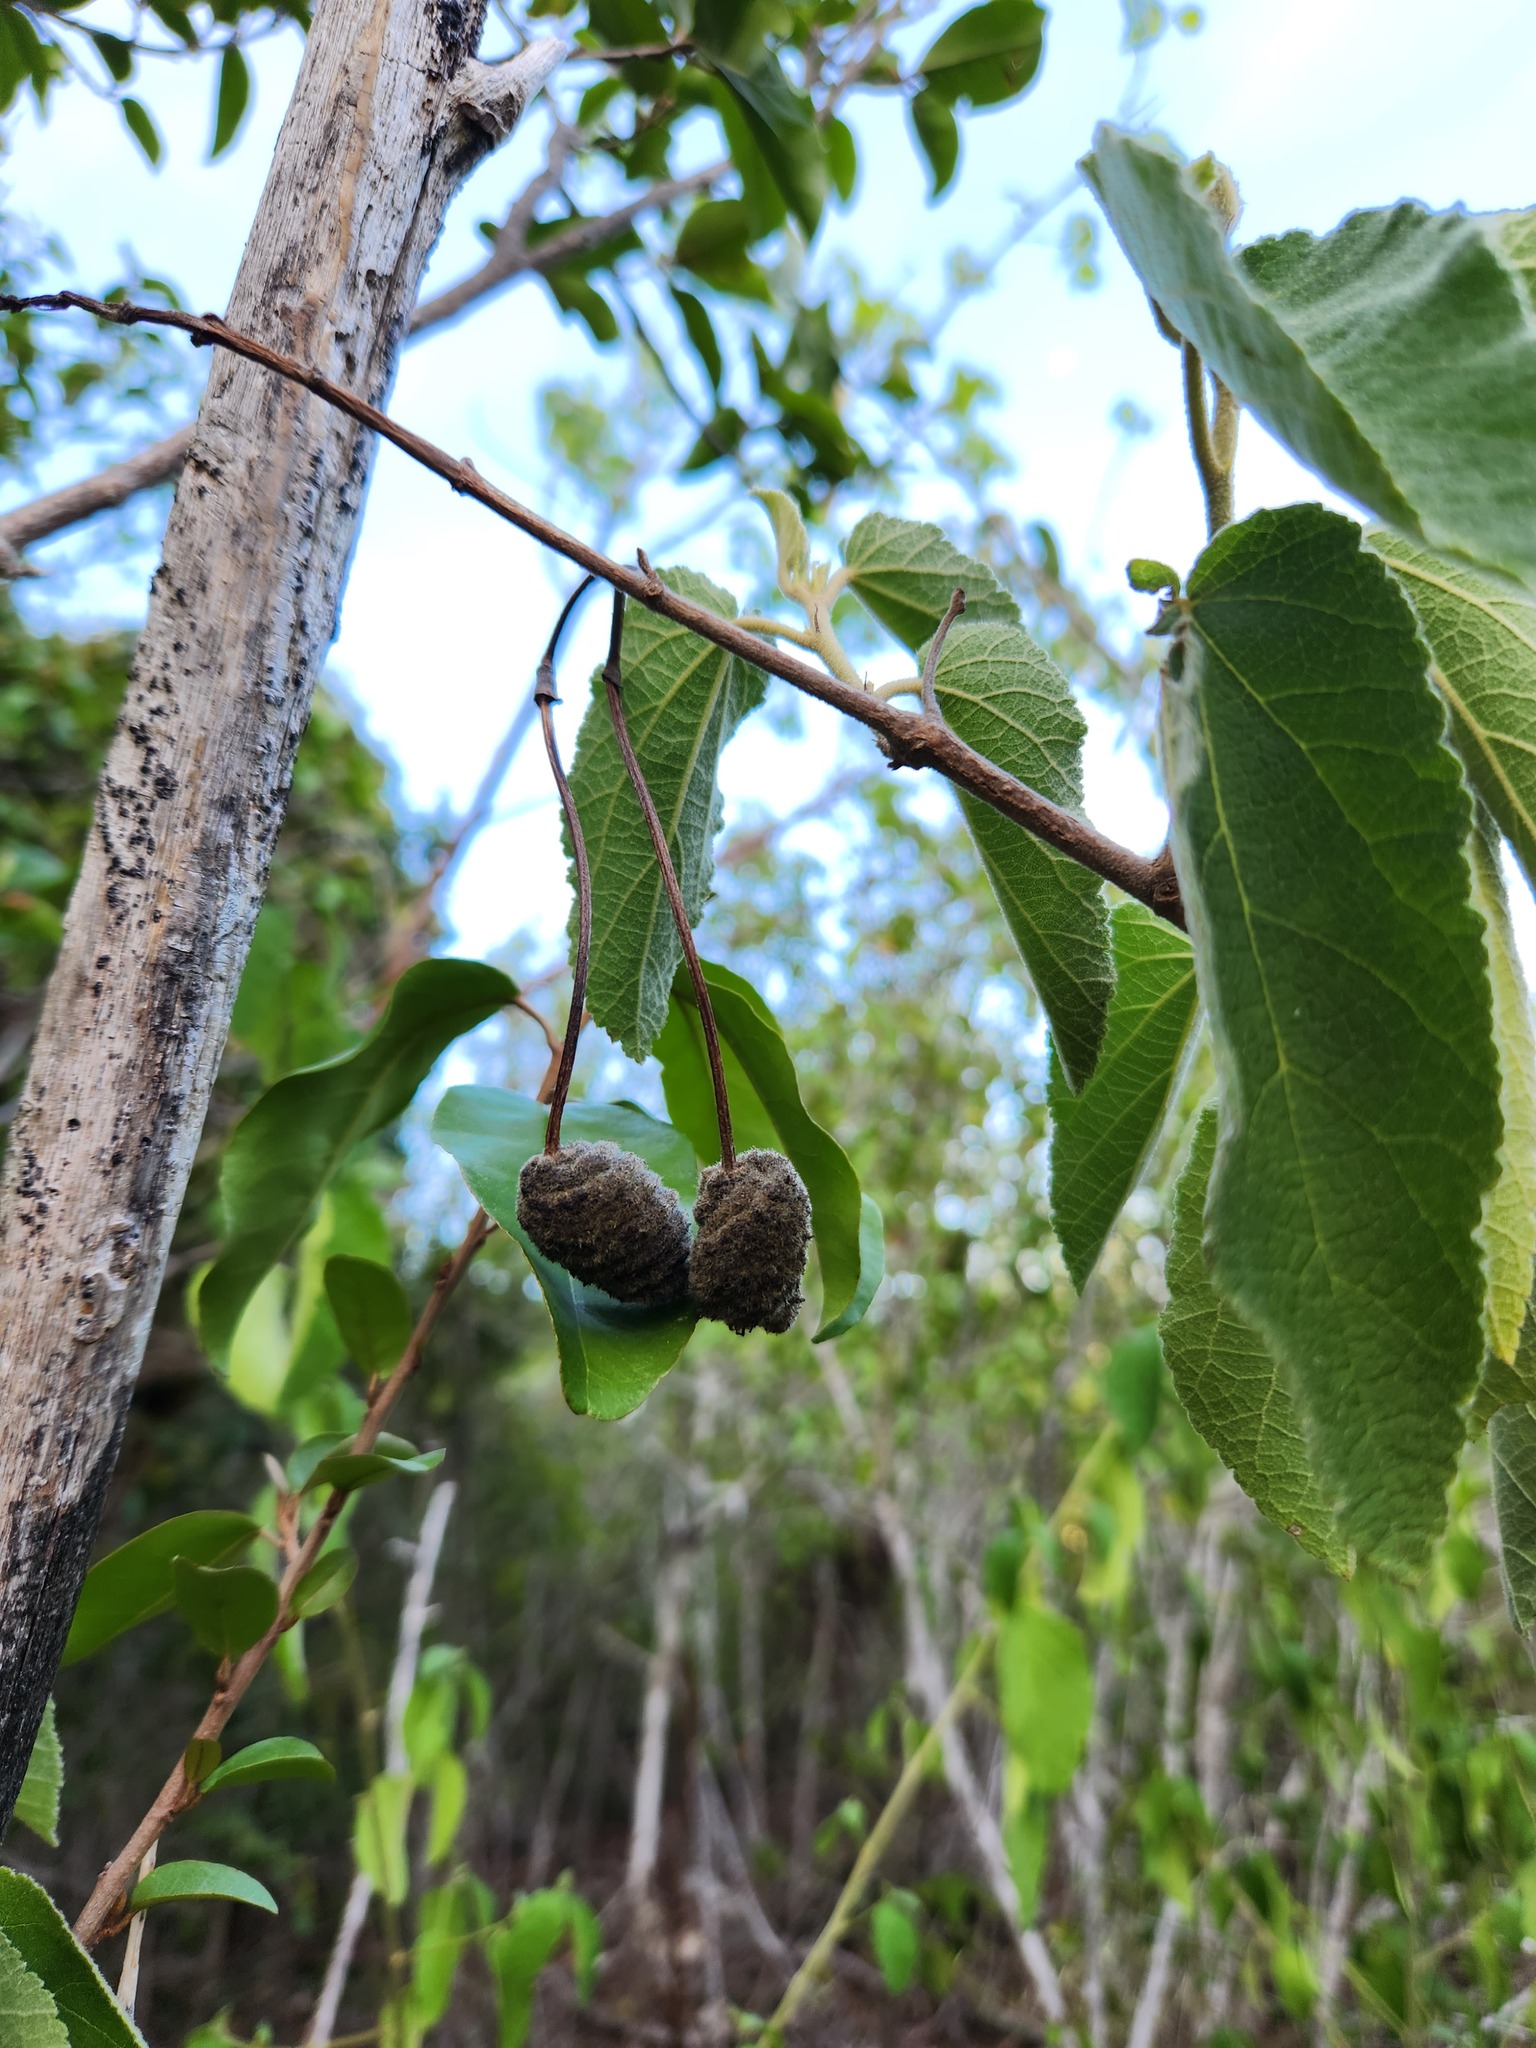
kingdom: Plantae
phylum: Tracheophyta
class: Magnoliopsida
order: Malvales
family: Malvaceae
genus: Helicteres
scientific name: Helicteres jamaicensis
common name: Cowbush
